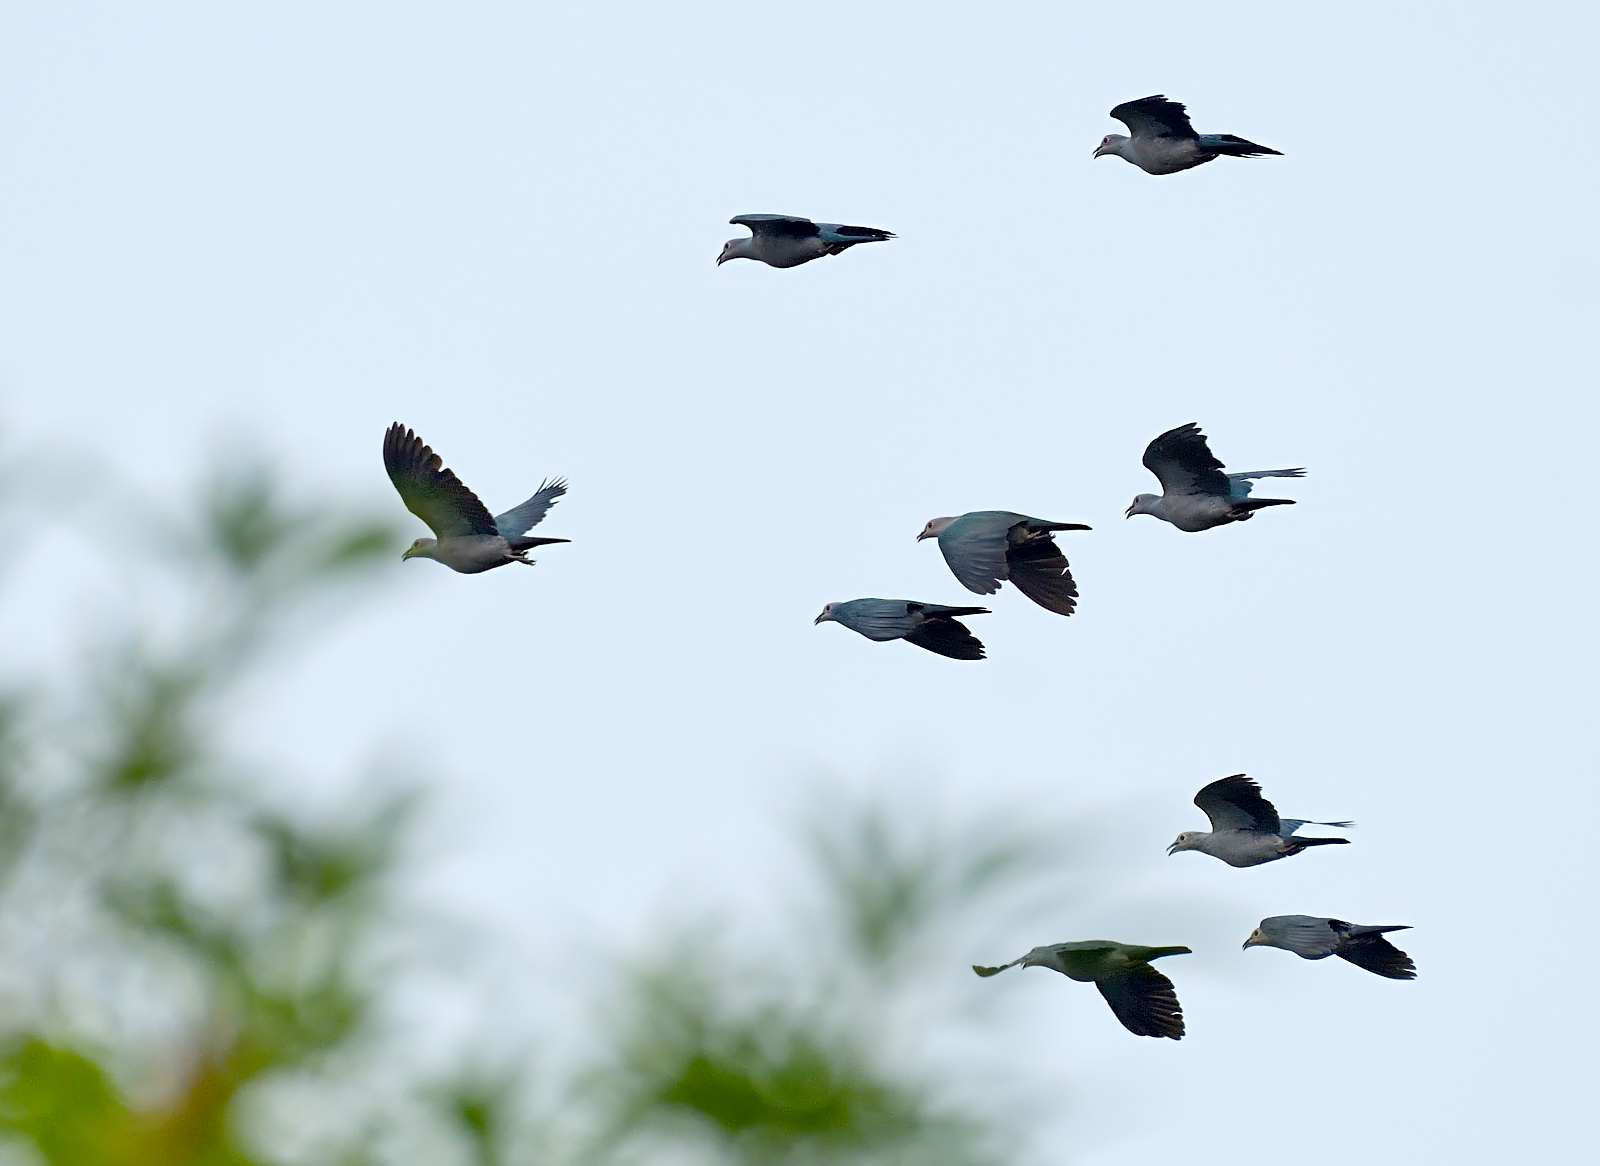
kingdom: Animalia
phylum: Chordata
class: Aves
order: Columbiformes
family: Columbidae
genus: Ducula
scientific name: Ducula aenea
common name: Green imperial pigeon
